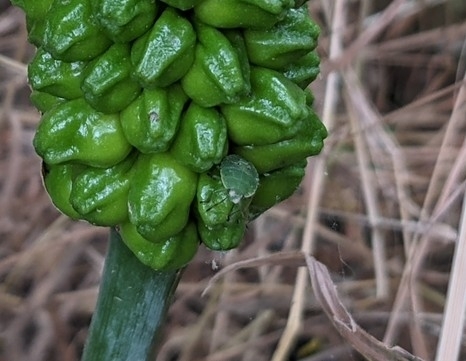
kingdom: Animalia
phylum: Arthropoda
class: Insecta
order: Hemiptera
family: Pentatomidae
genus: Palomena
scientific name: Palomena prasina
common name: Green shieldbug
